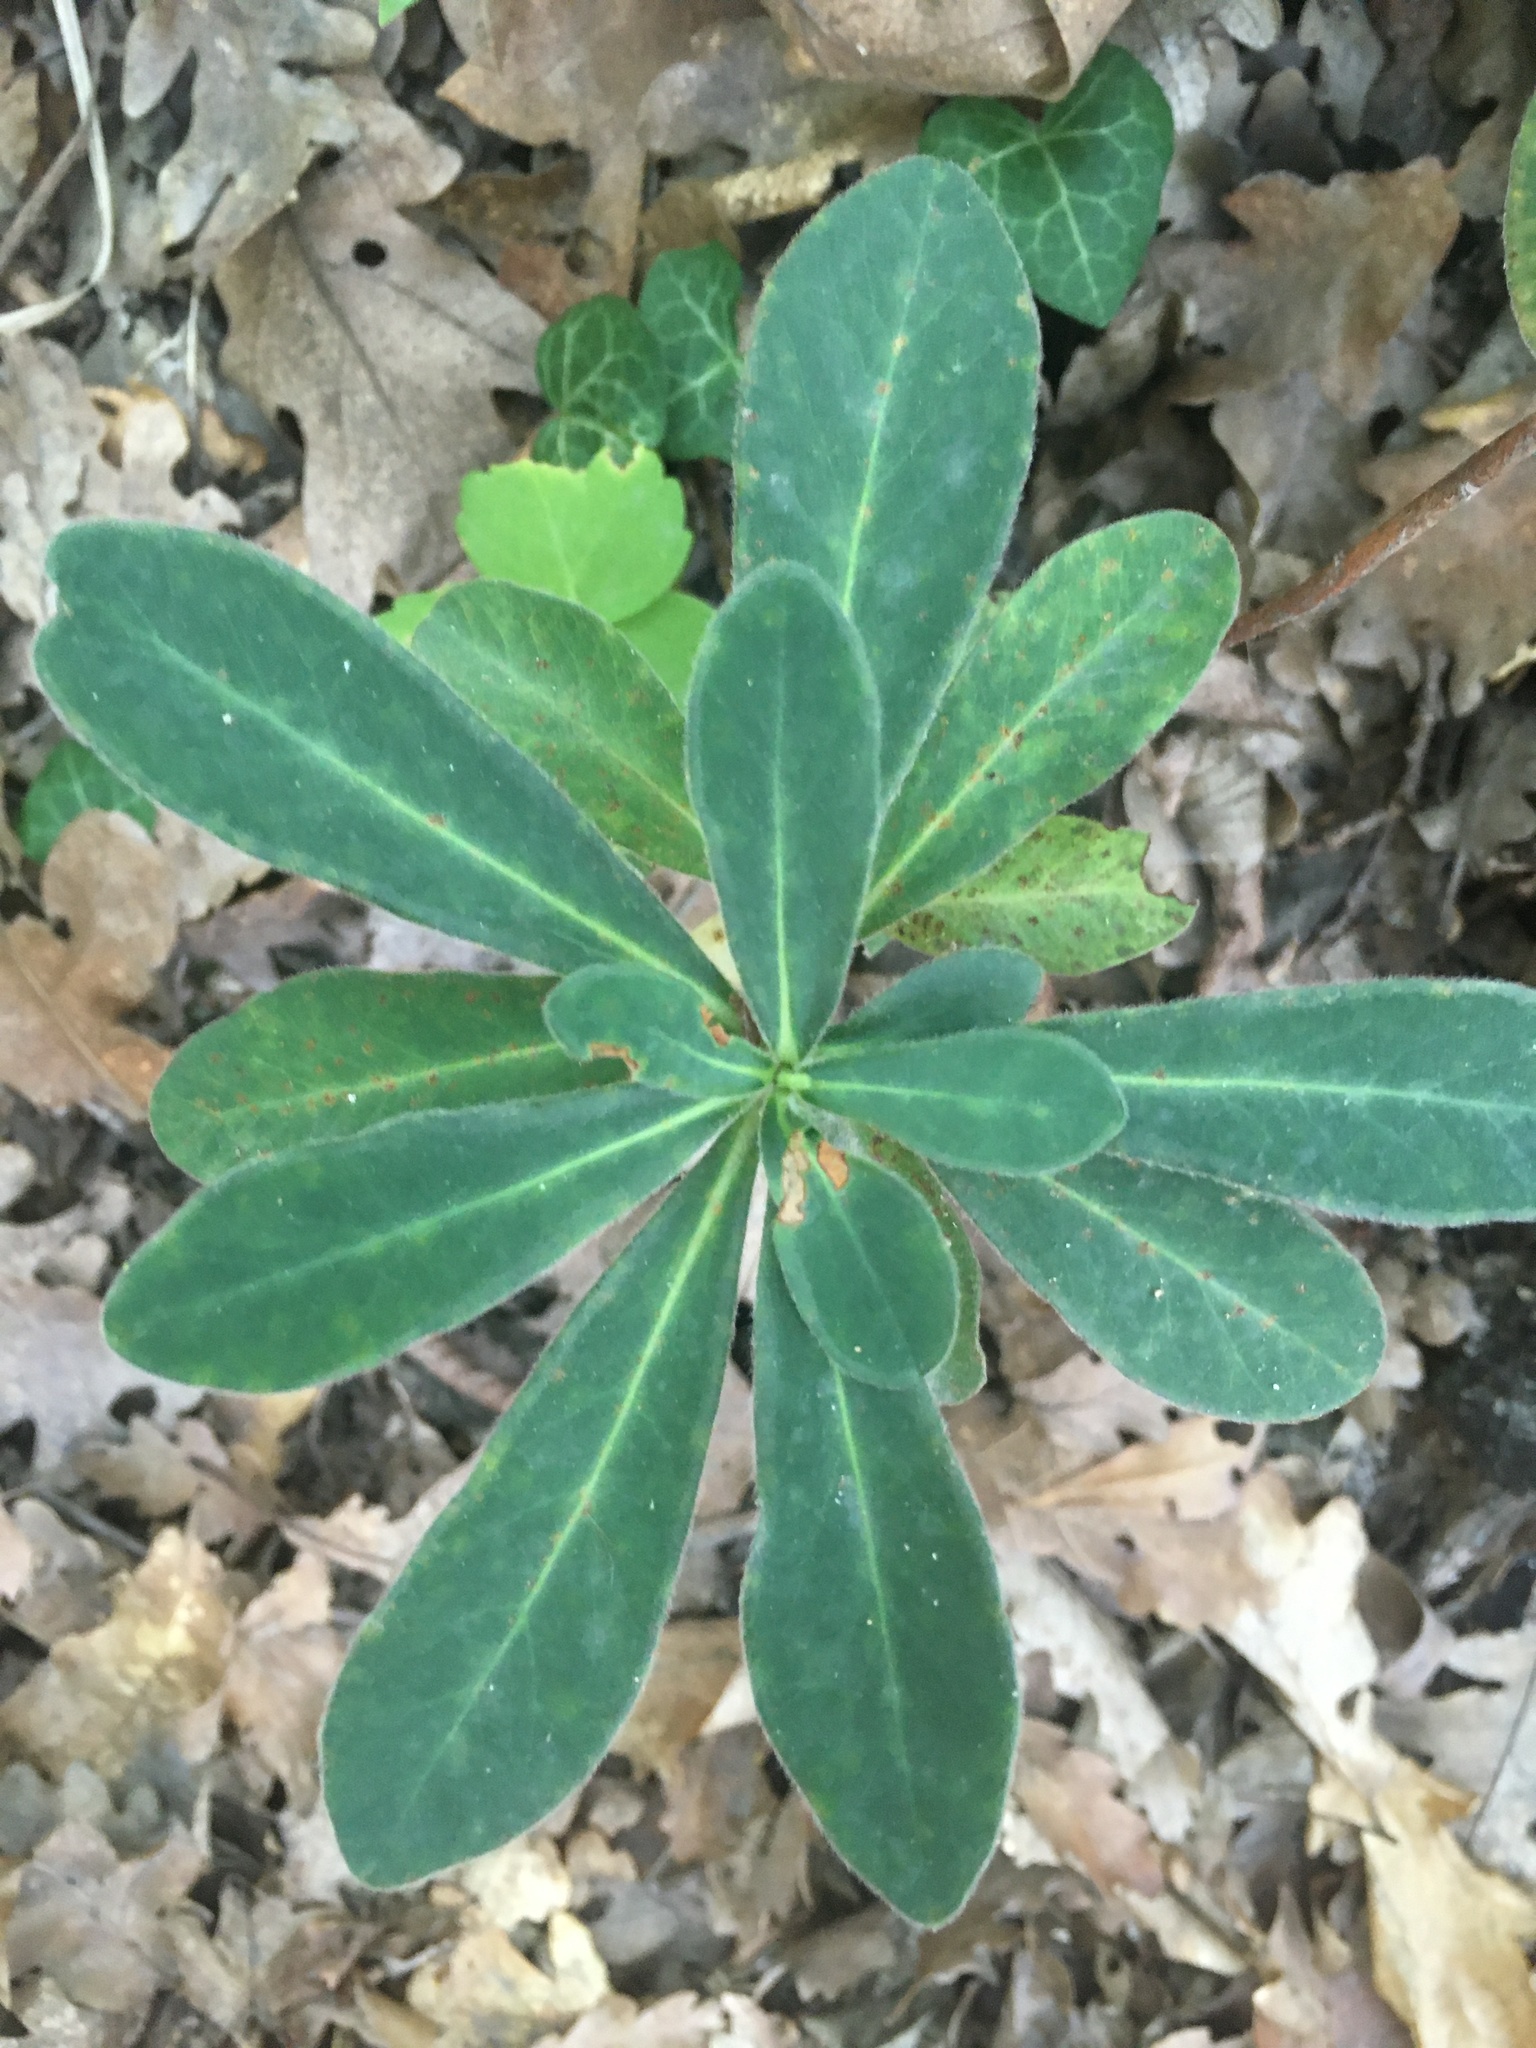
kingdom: Plantae
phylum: Tracheophyta
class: Magnoliopsida
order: Malpighiales
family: Euphorbiaceae
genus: Euphorbia
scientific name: Euphorbia amygdaloides
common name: Wood spurge
